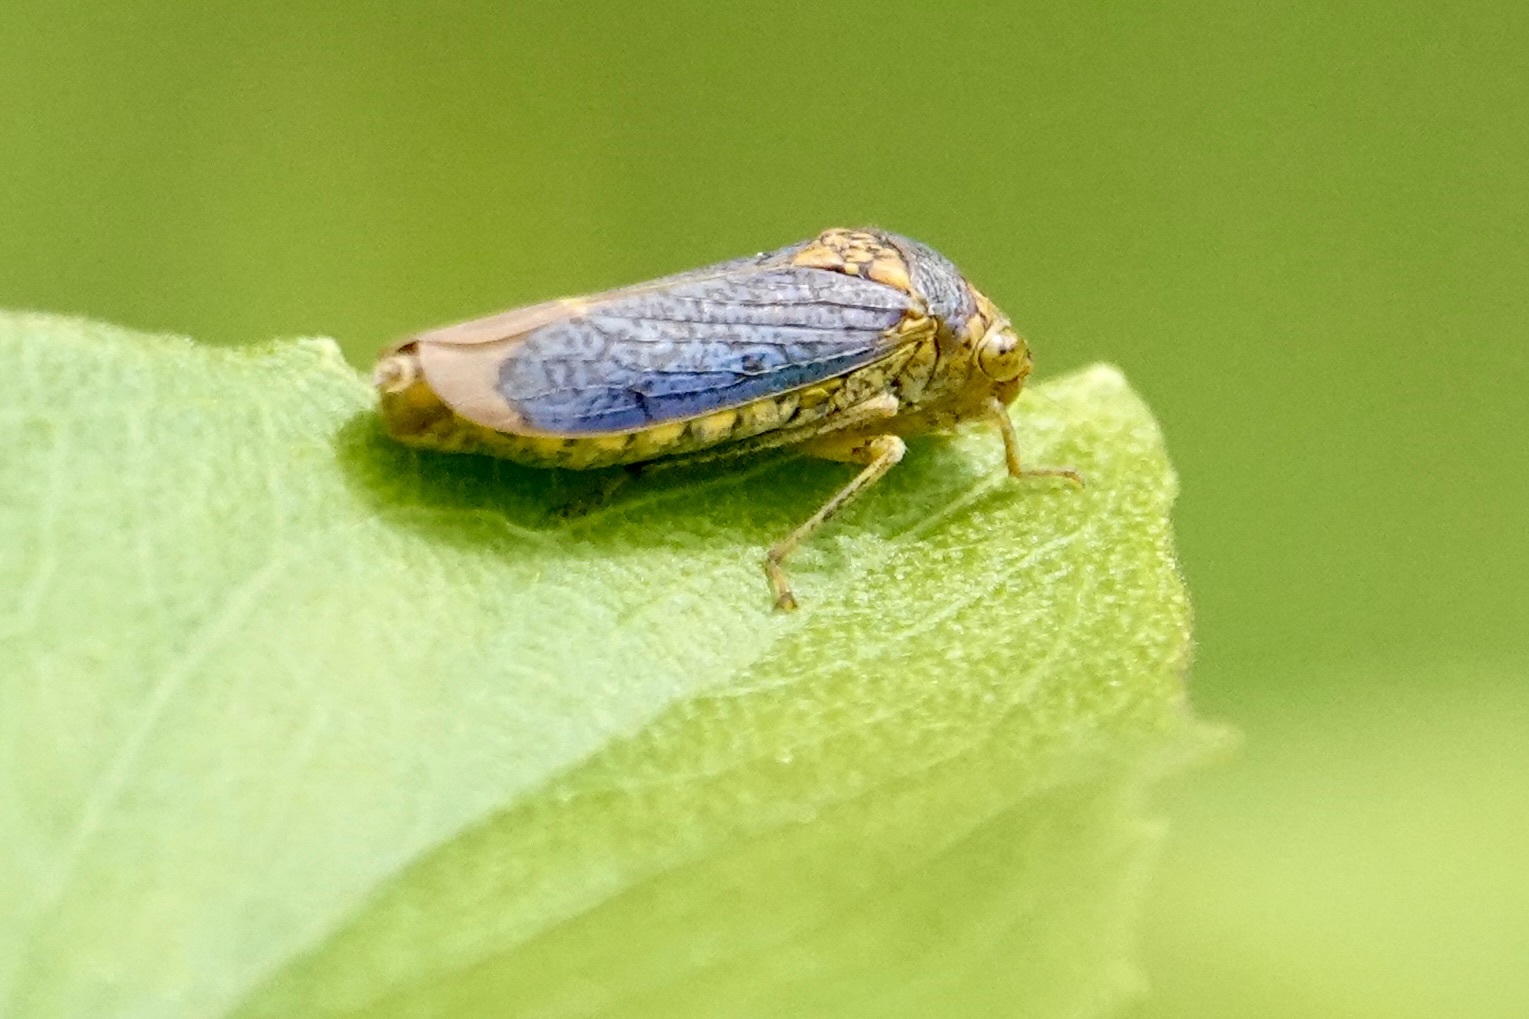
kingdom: Animalia
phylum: Arthropoda
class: Insecta
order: Hemiptera
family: Cicadellidae
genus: Oncometopia
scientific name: Oncometopia orbona
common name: Broad-headed sharpshooter
